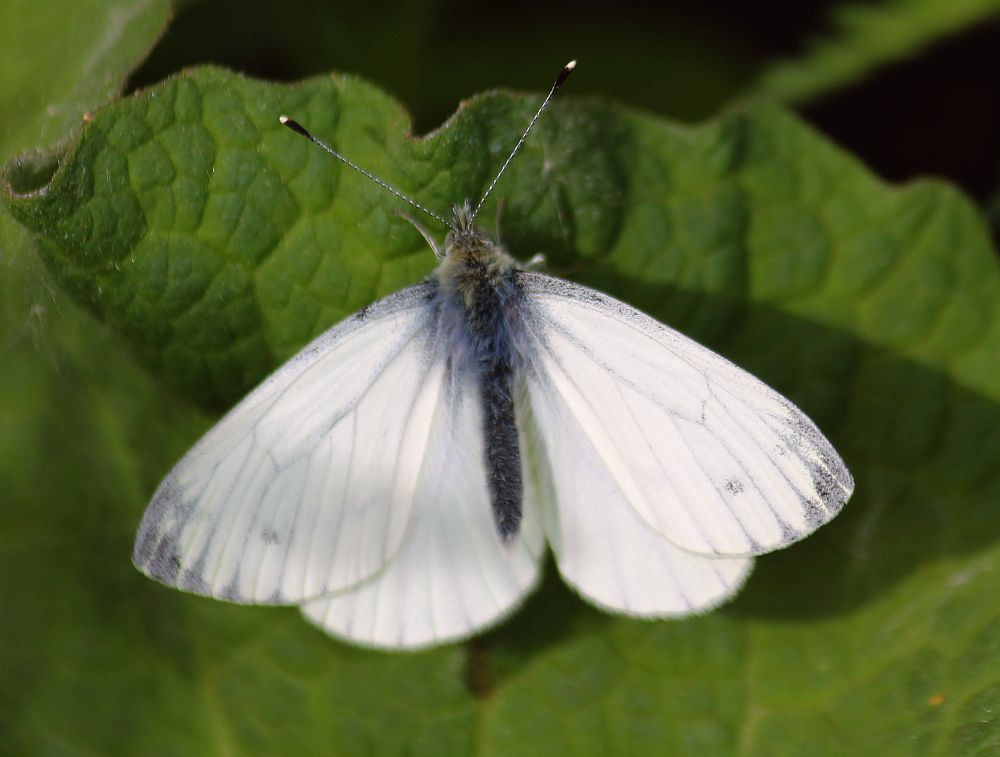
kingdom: Animalia
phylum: Arthropoda
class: Insecta
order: Lepidoptera
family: Pieridae
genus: Pieris
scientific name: Pieris napi
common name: Green-veined white
